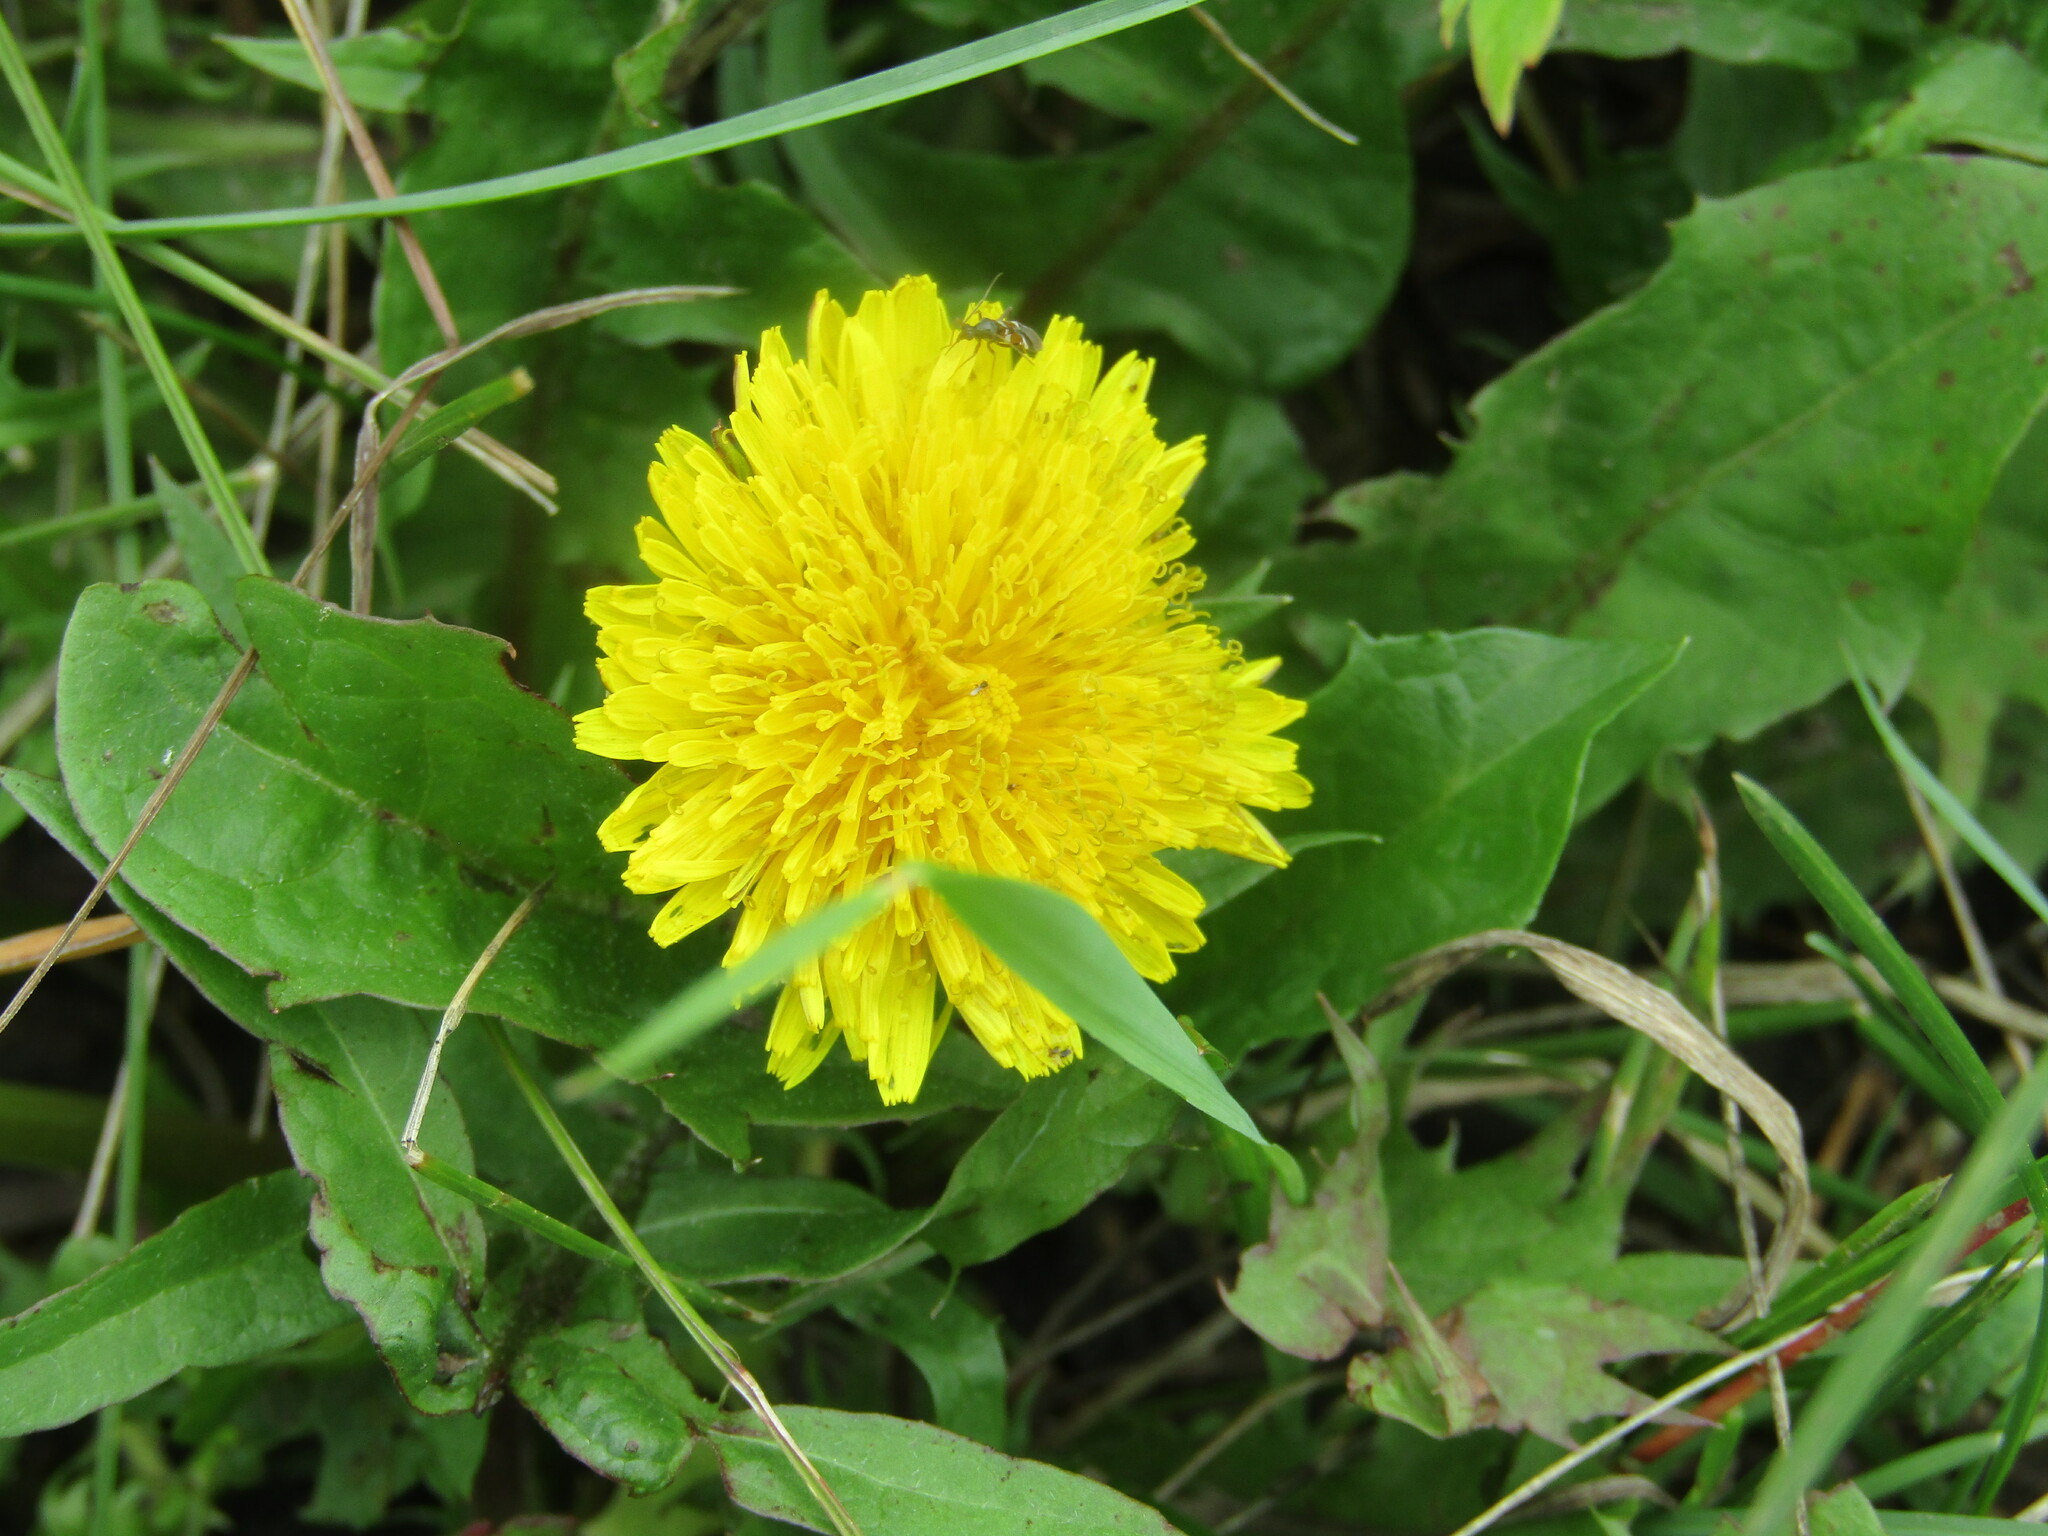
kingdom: Plantae
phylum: Tracheophyta
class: Magnoliopsida
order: Asterales
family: Asteraceae
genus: Taraxacum
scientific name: Taraxacum officinale
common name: Common dandelion
